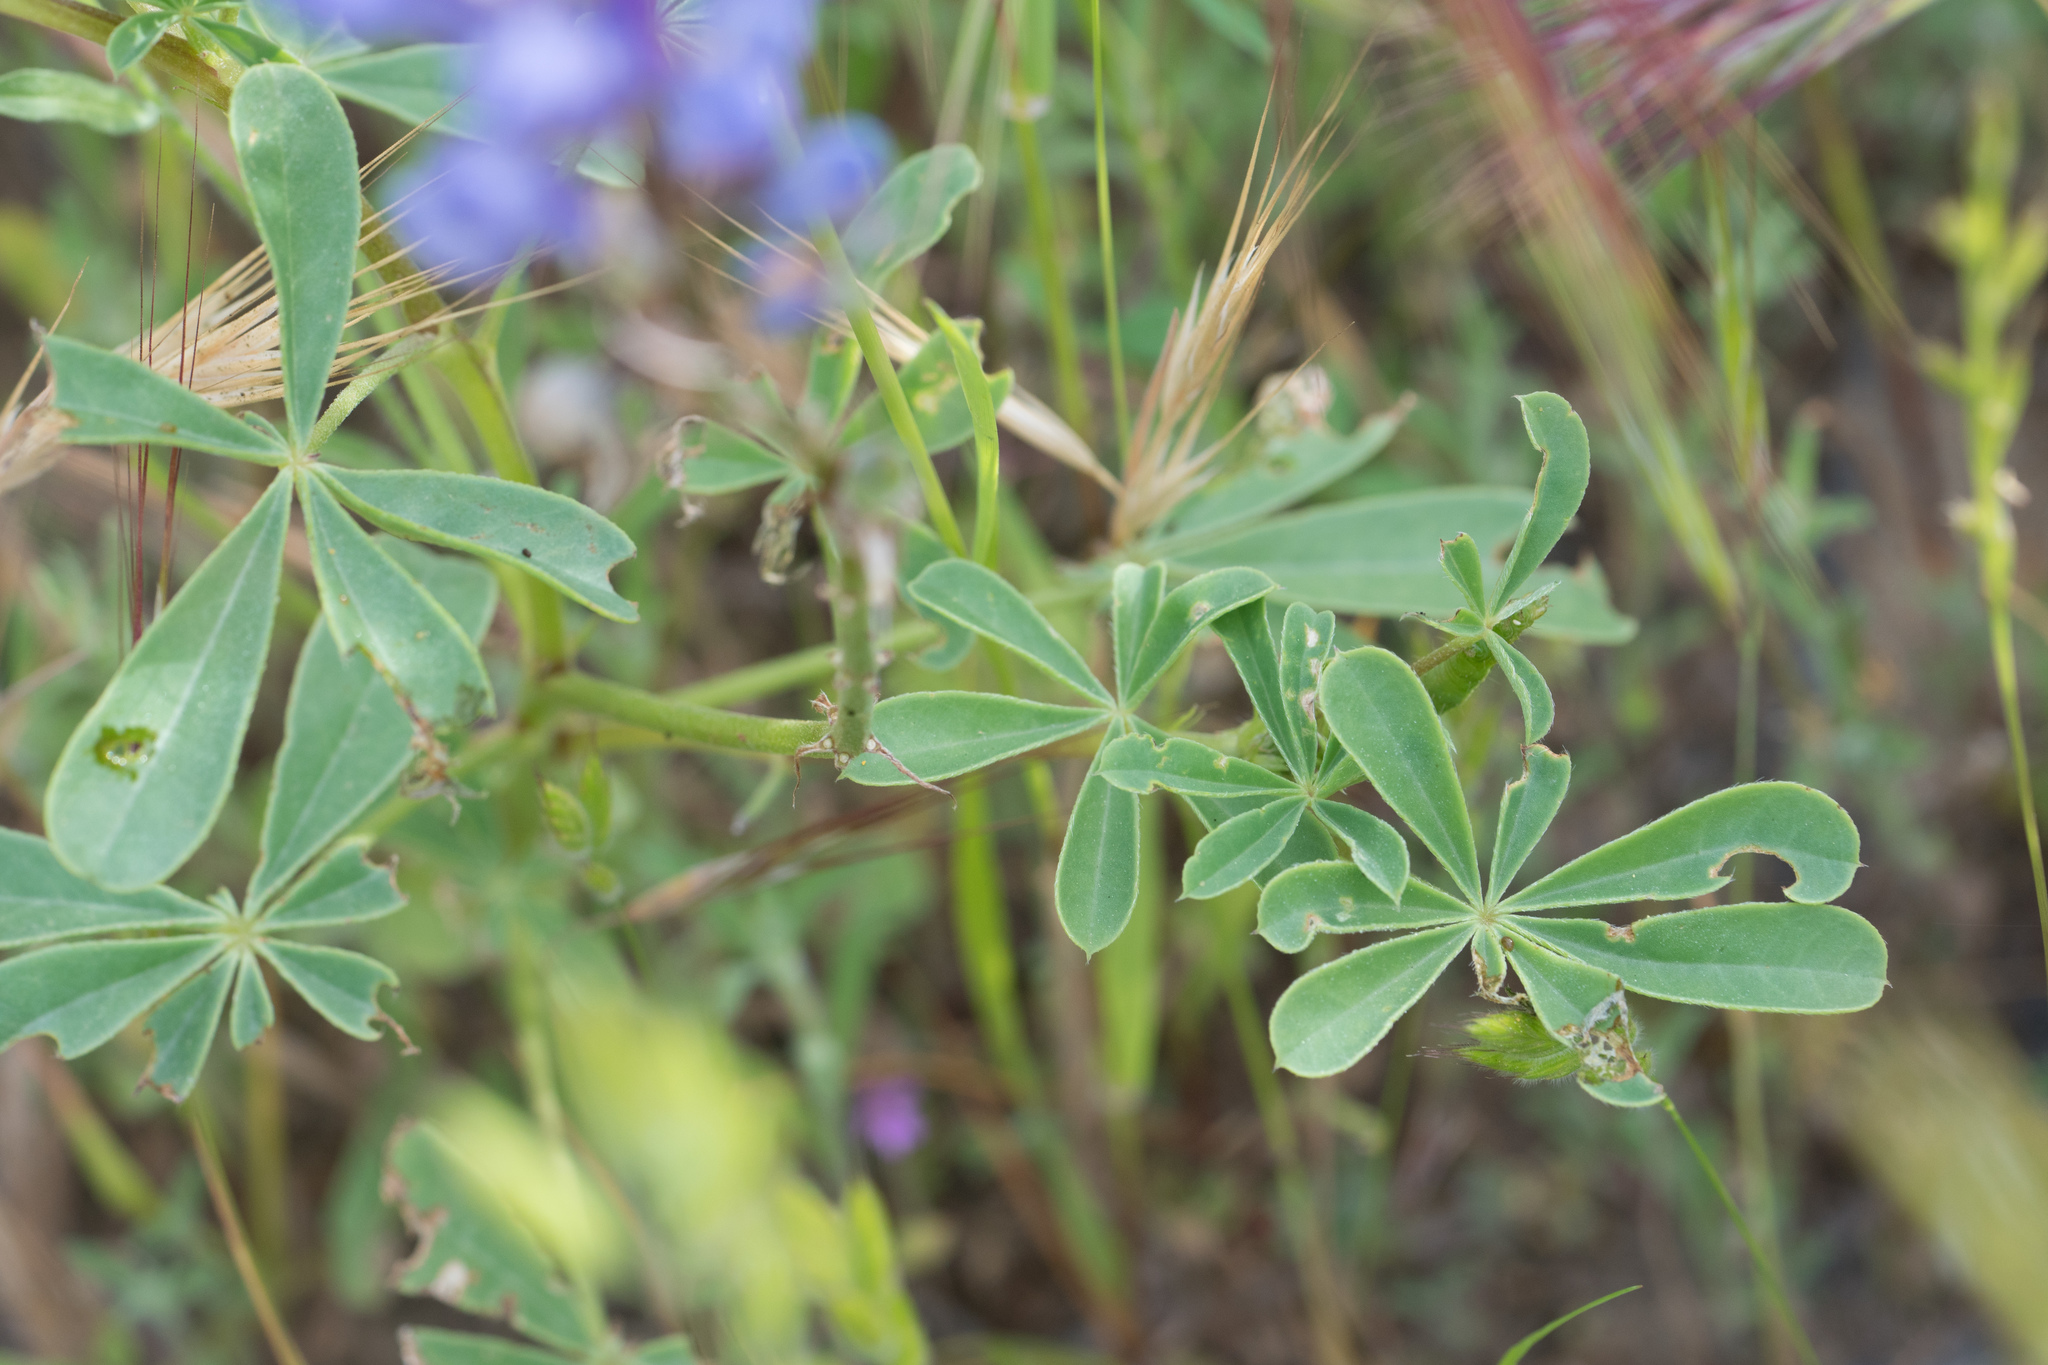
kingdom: Plantae
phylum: Tracheophyta
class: Magnoliopsida
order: Fabales
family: Fabaceae
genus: Lupinus
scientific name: Lupinus succulentus
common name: Arroyo lupine
